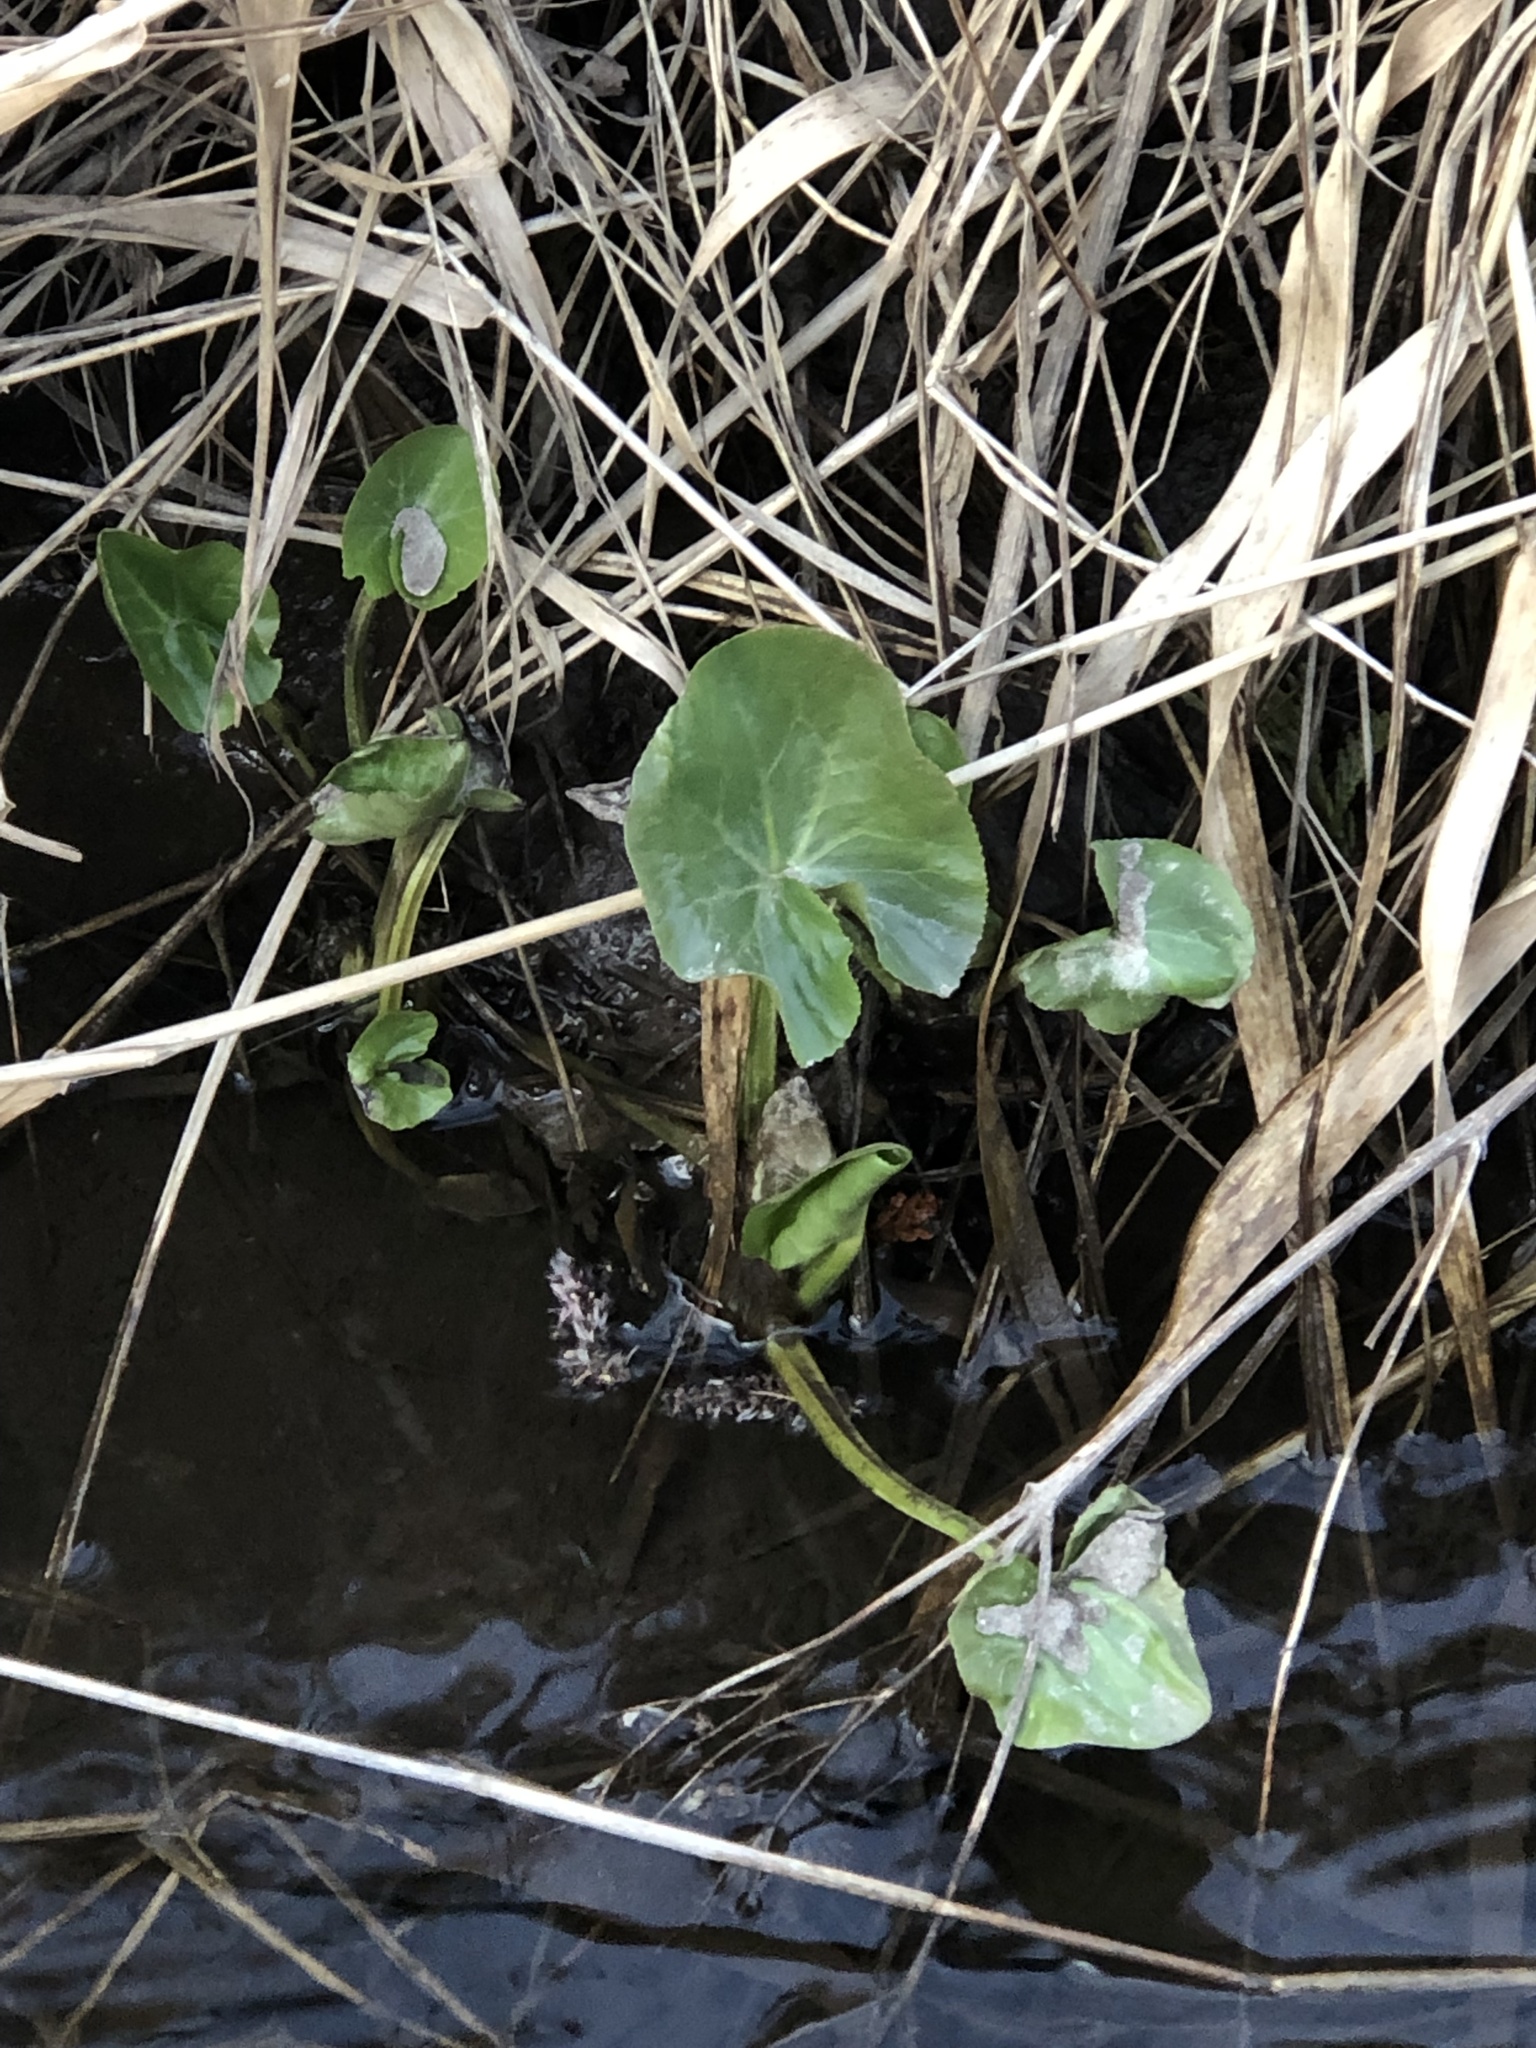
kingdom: Plantae
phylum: Tracheophyta
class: Magnoliopsida
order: Ranunculales
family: Ranunculaceae
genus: Caltha
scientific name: Caltha palustris
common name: Marsh marigold
